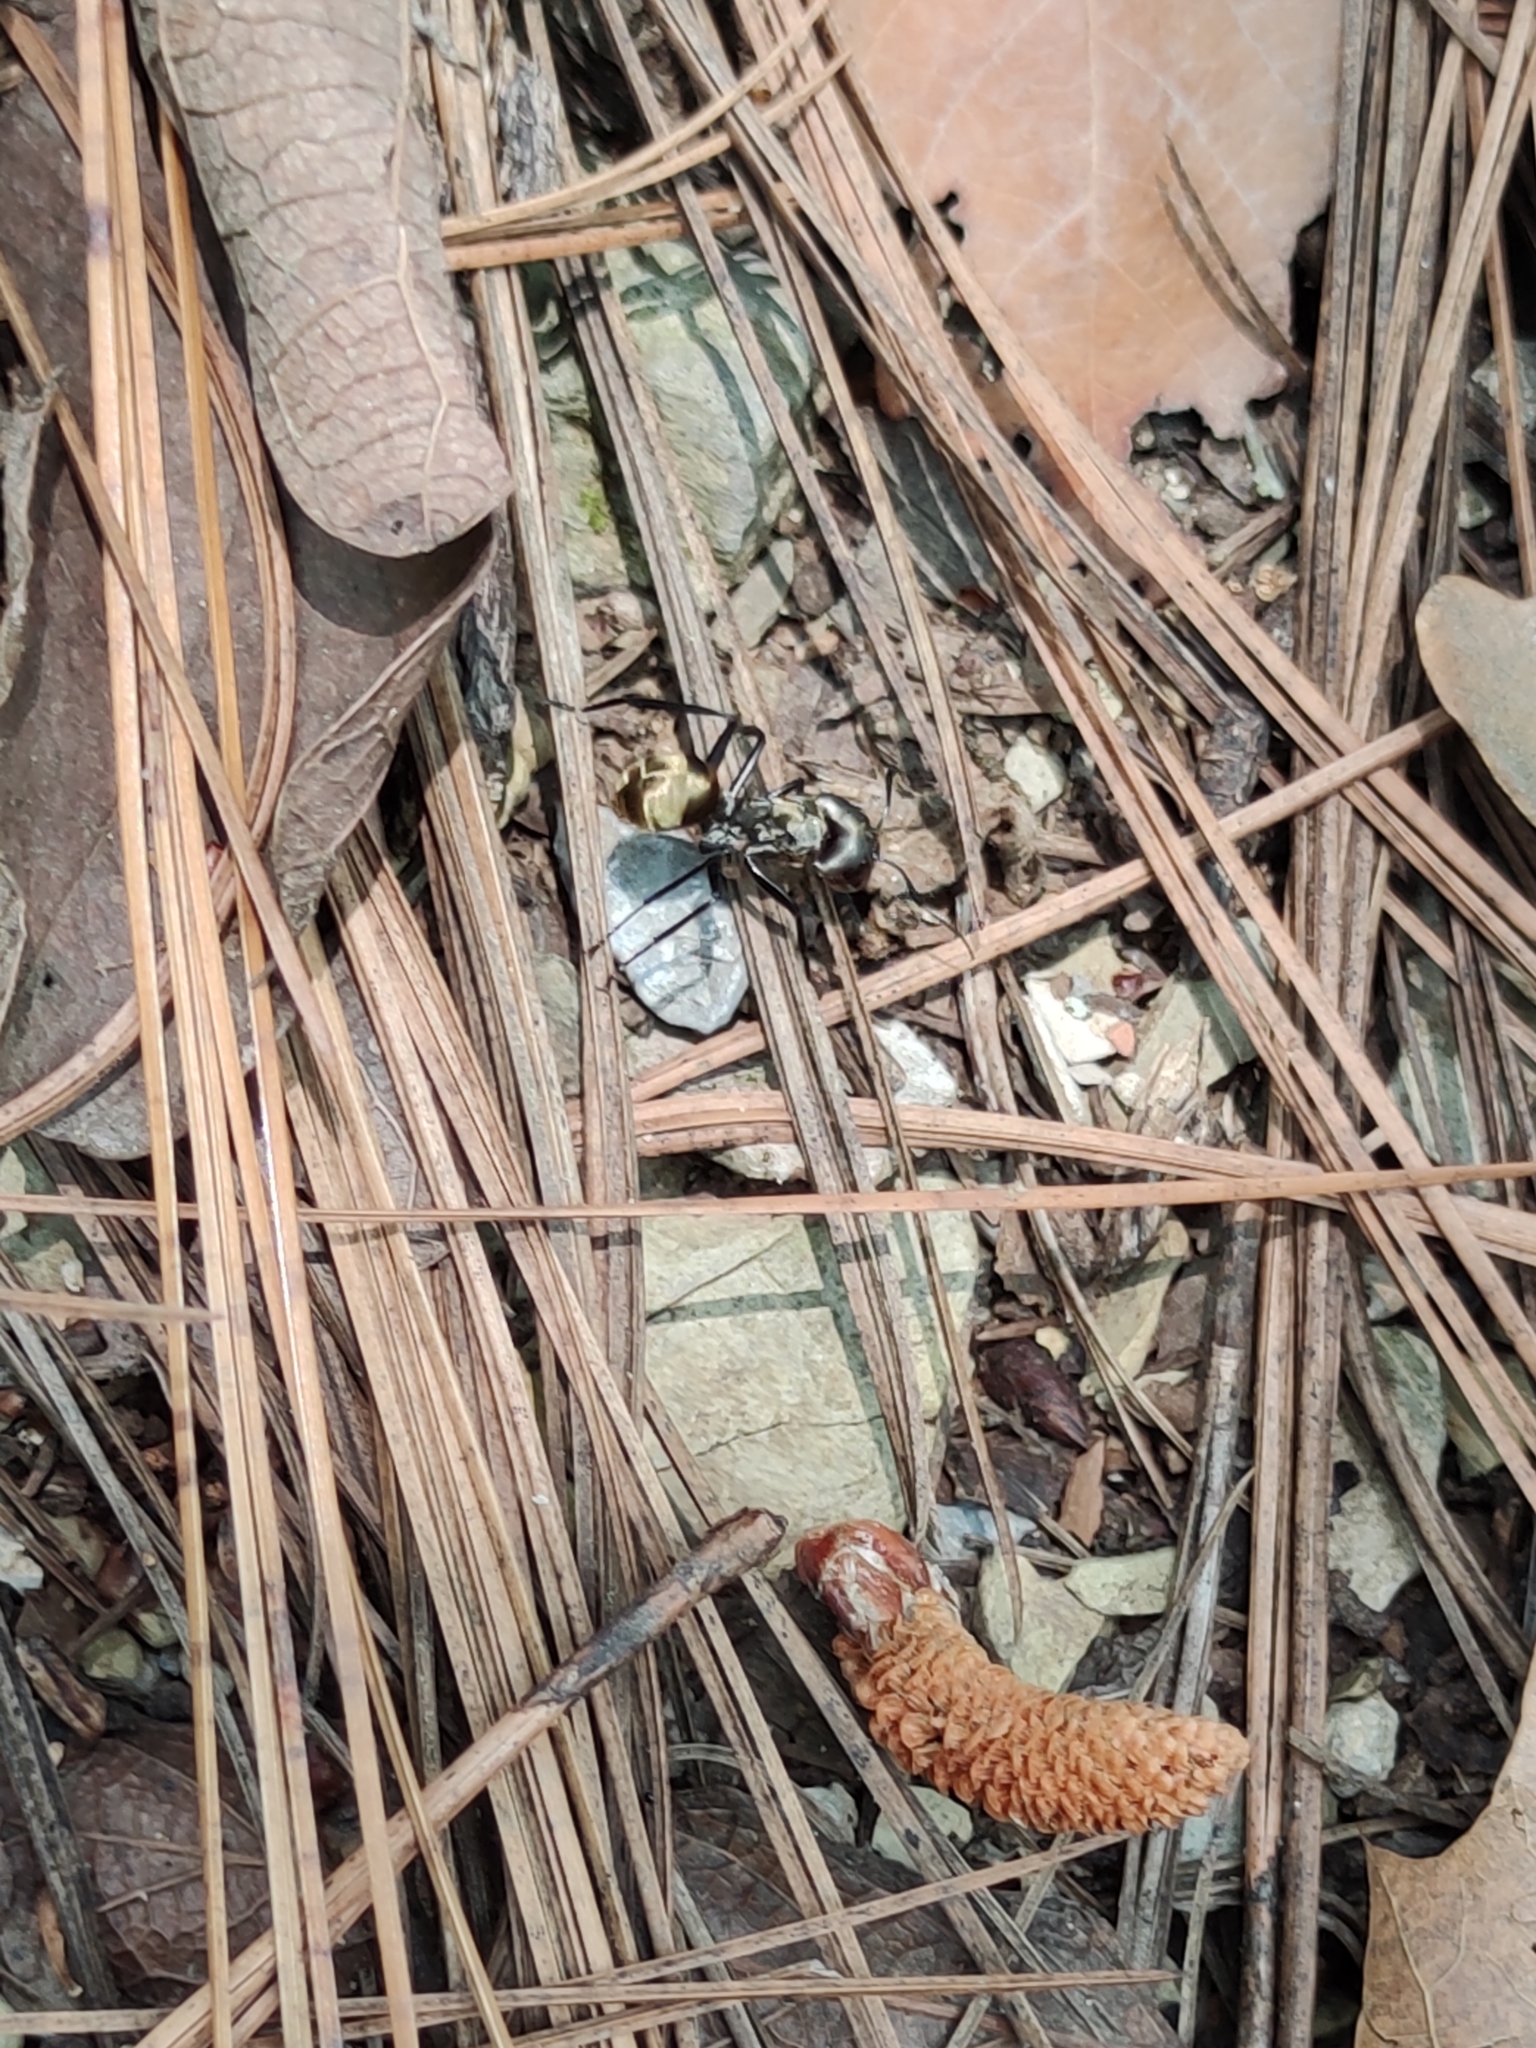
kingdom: Animalia
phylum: Arthropoda
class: Insecta
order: Hymenoptera
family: Formicidae
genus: Camponotus
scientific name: Camponotus sericeiventris
